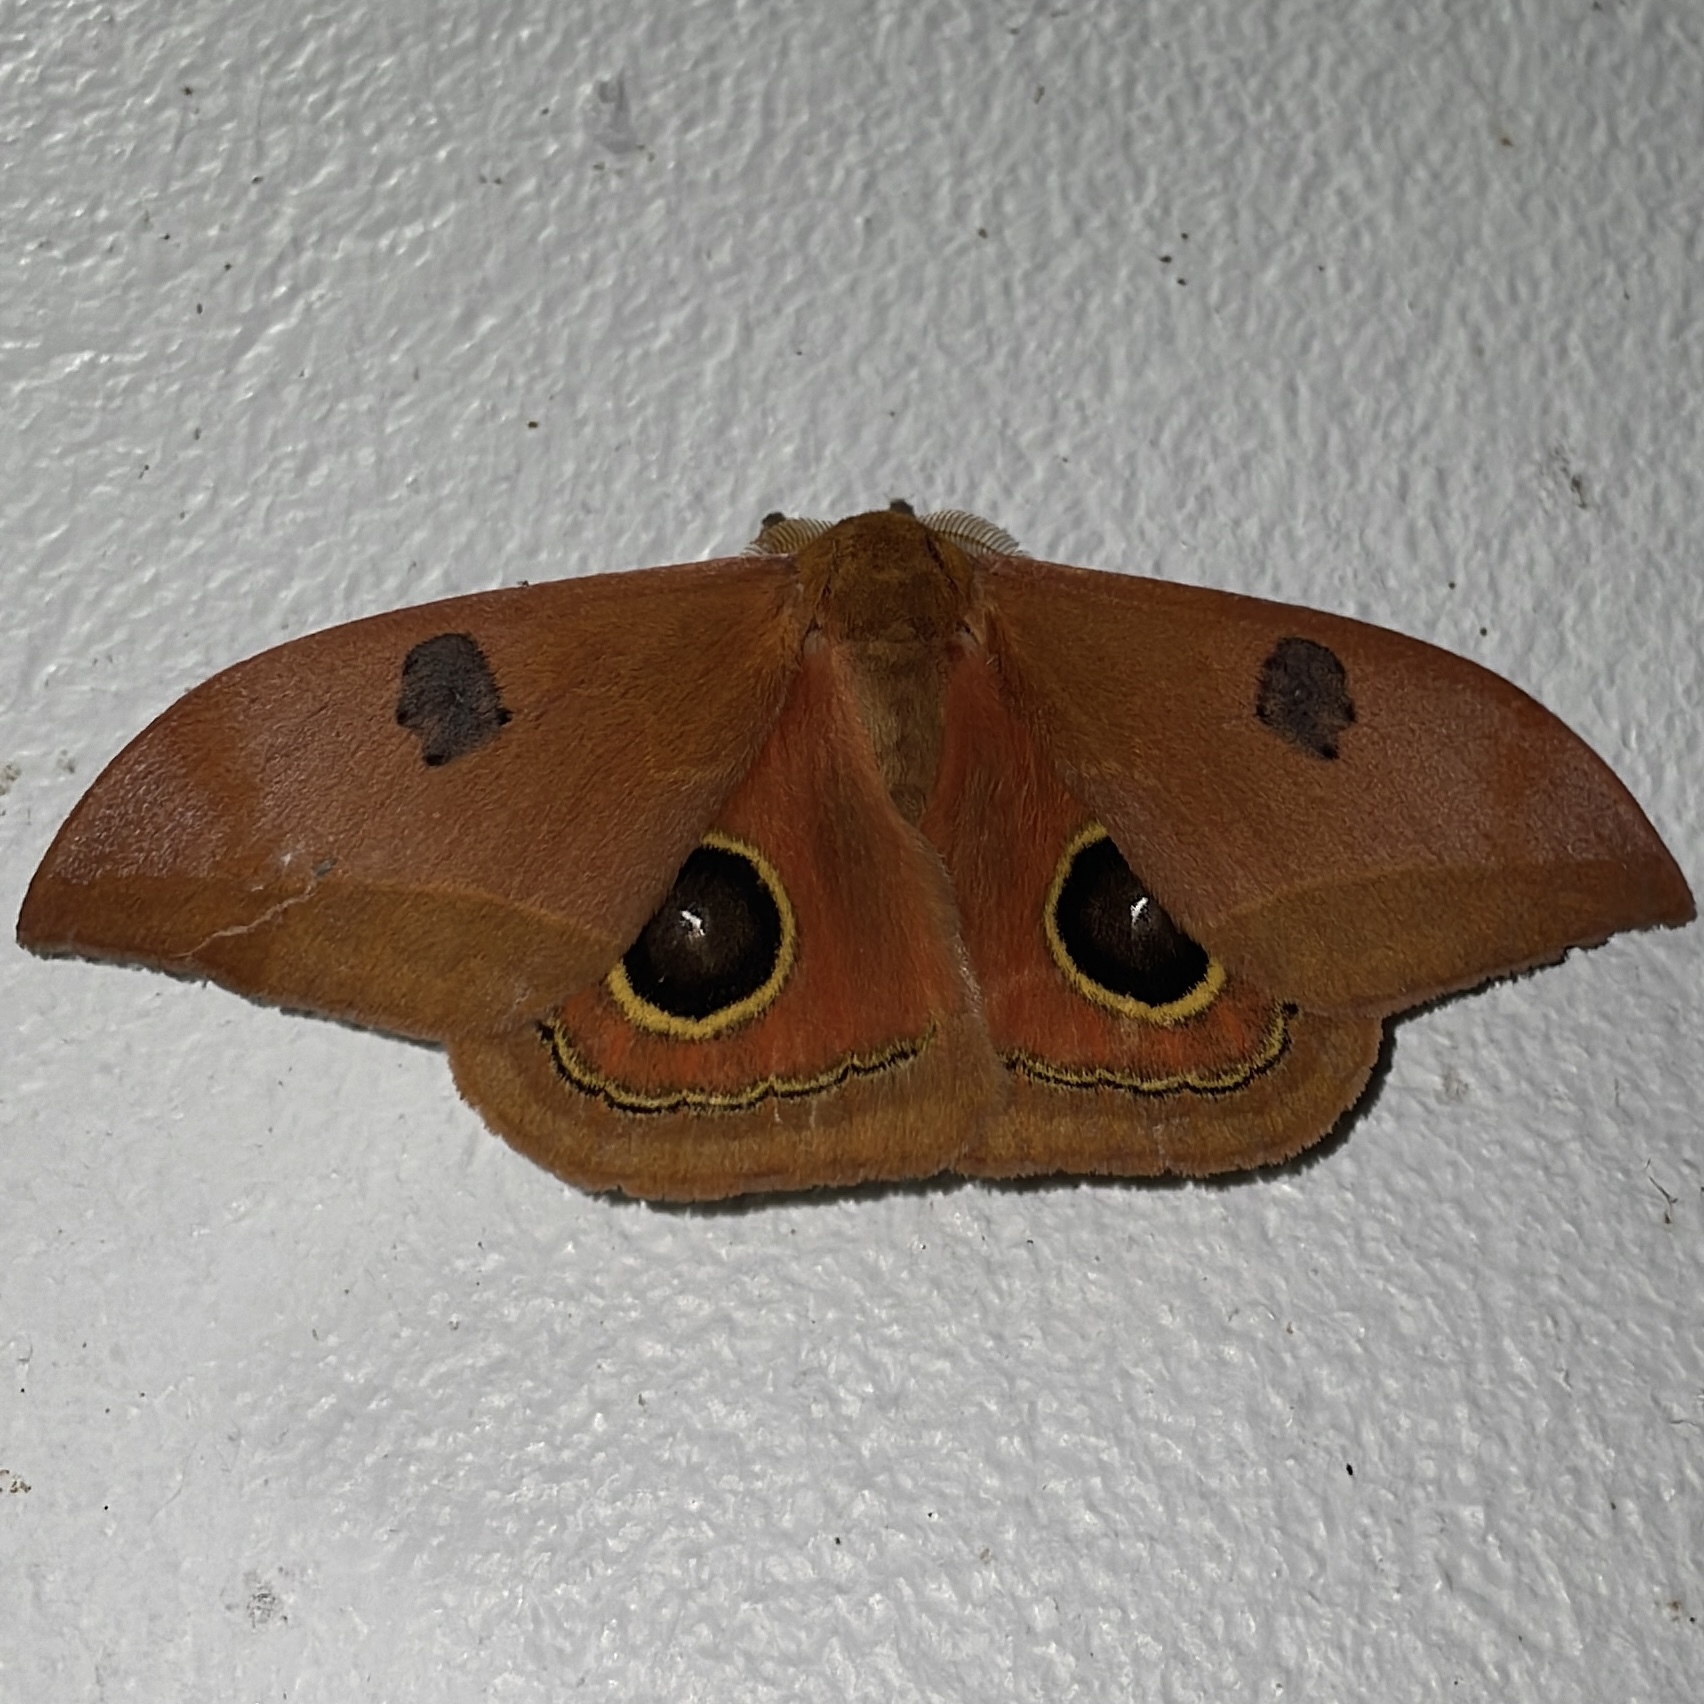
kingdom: Animalia
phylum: Arthropoda
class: Insecta
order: Lepidoptera
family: Saturniidae
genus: Automeris
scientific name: Automeris midea
